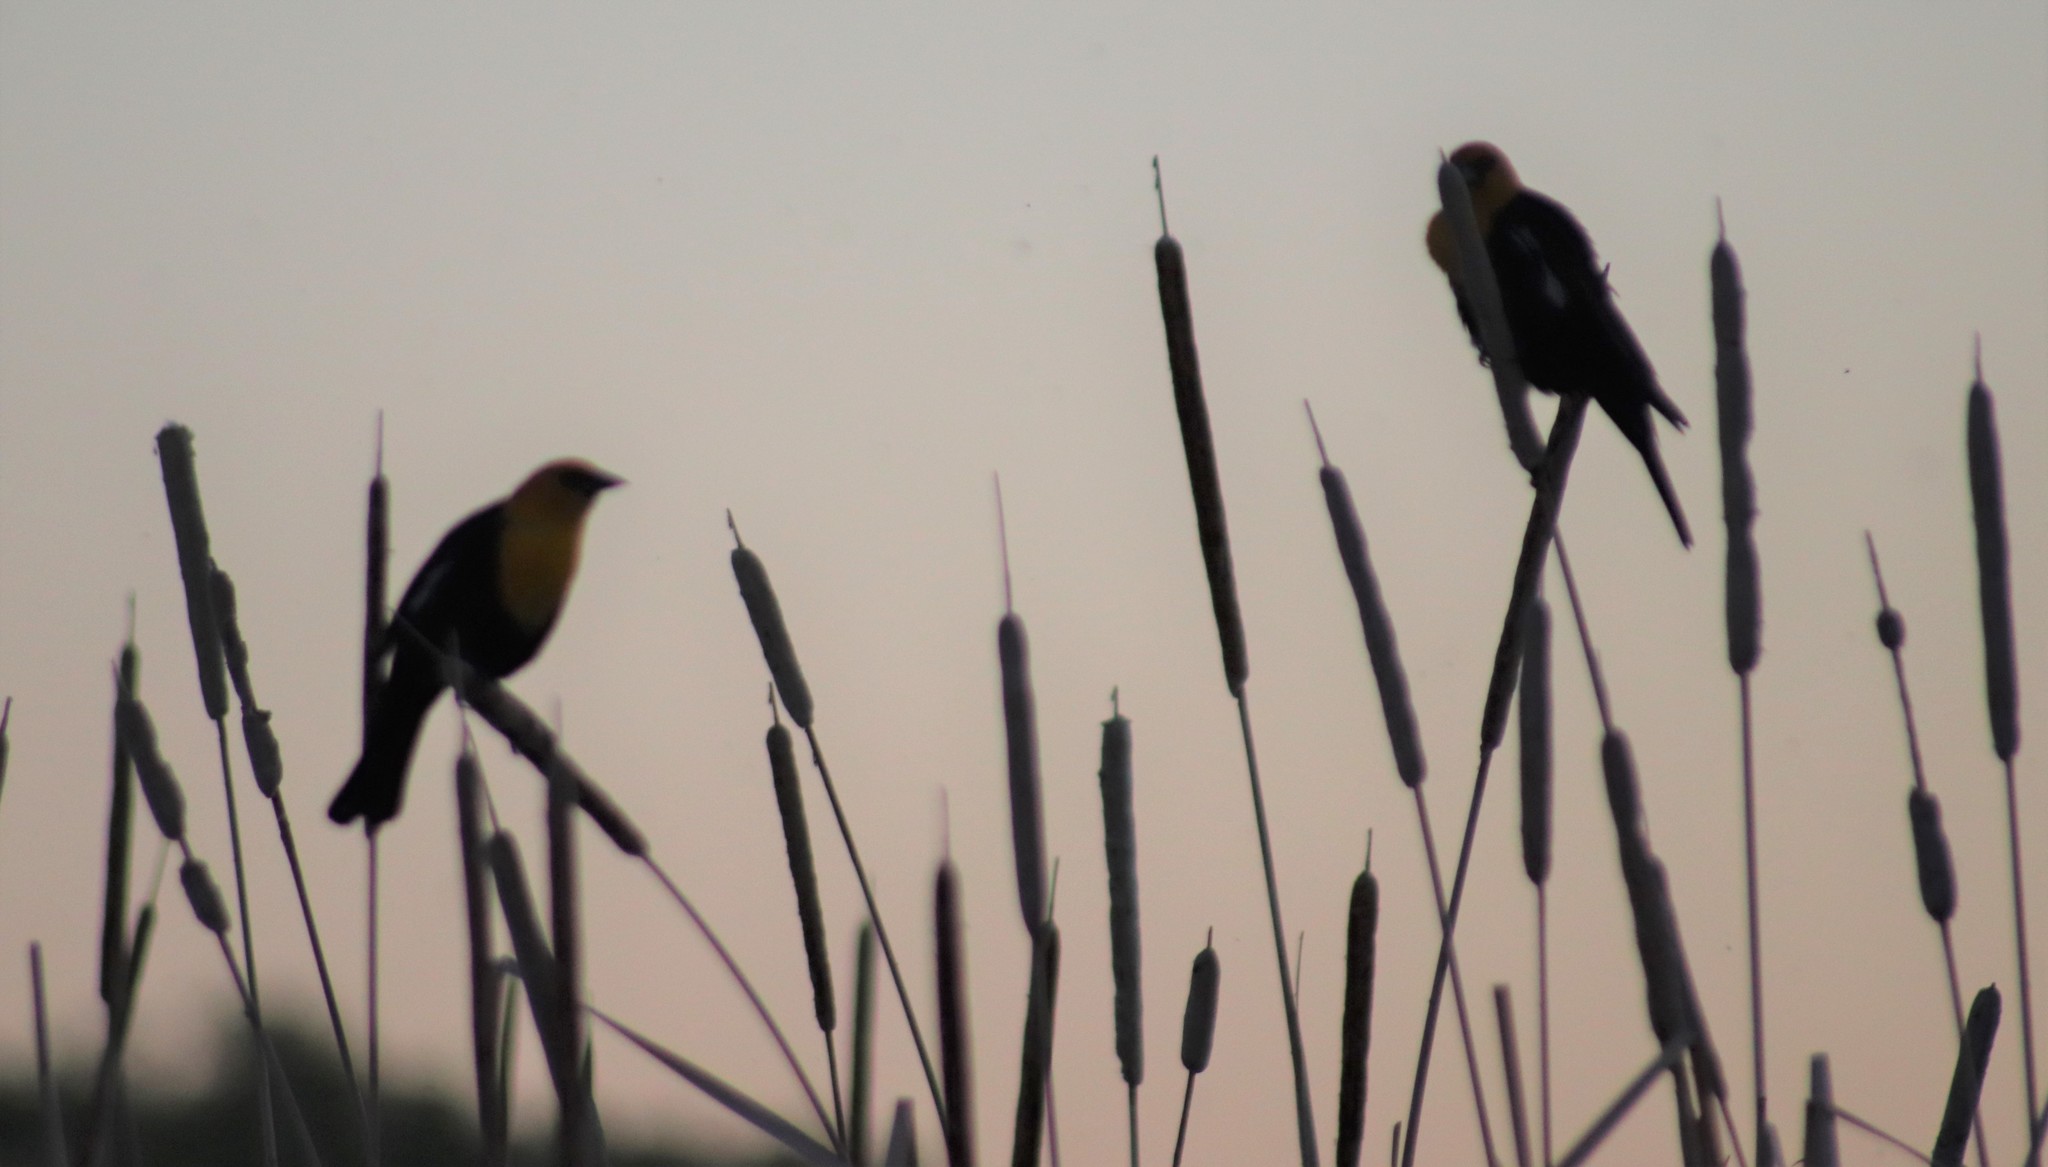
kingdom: Animalia
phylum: Chordata
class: Aves
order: Passeriformes
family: Icteridae
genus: Xanthocephalus
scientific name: Xanthocephalus xanthocephalus
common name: Yellow-headed blackbird
